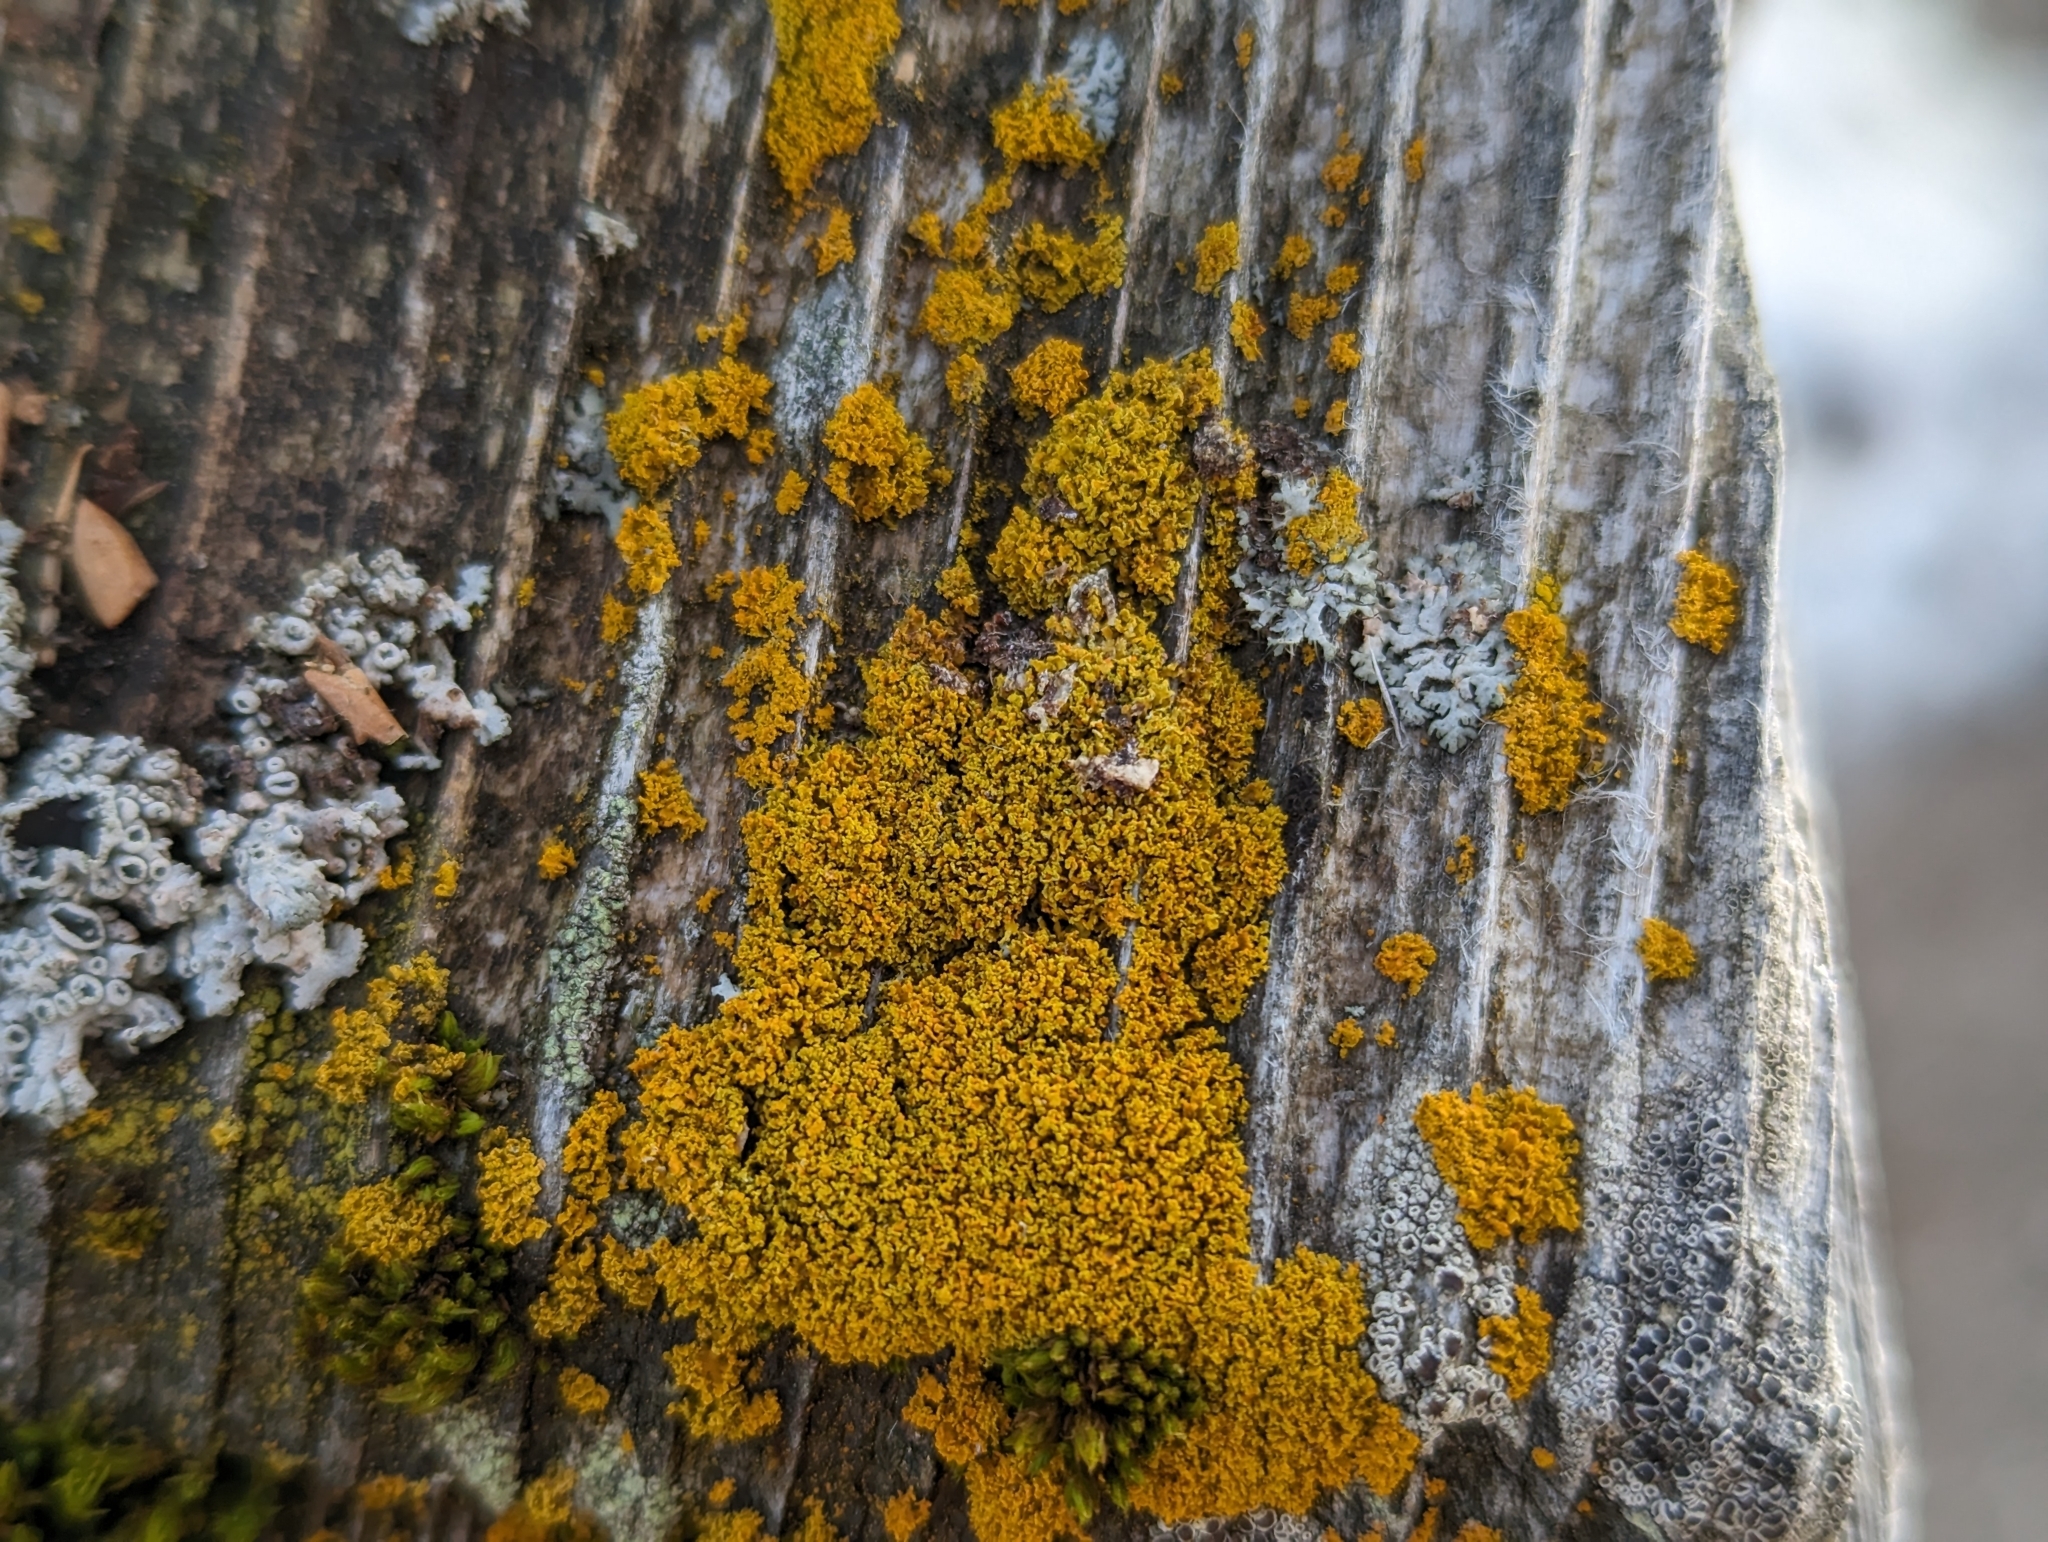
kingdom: Fungi
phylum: Ascomycota
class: Lecanoromycetes
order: Teloschistales
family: Teloschistaceae
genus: Polycauliona
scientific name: Polycauliona candelaria
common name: Shrubby sunburst lichen
